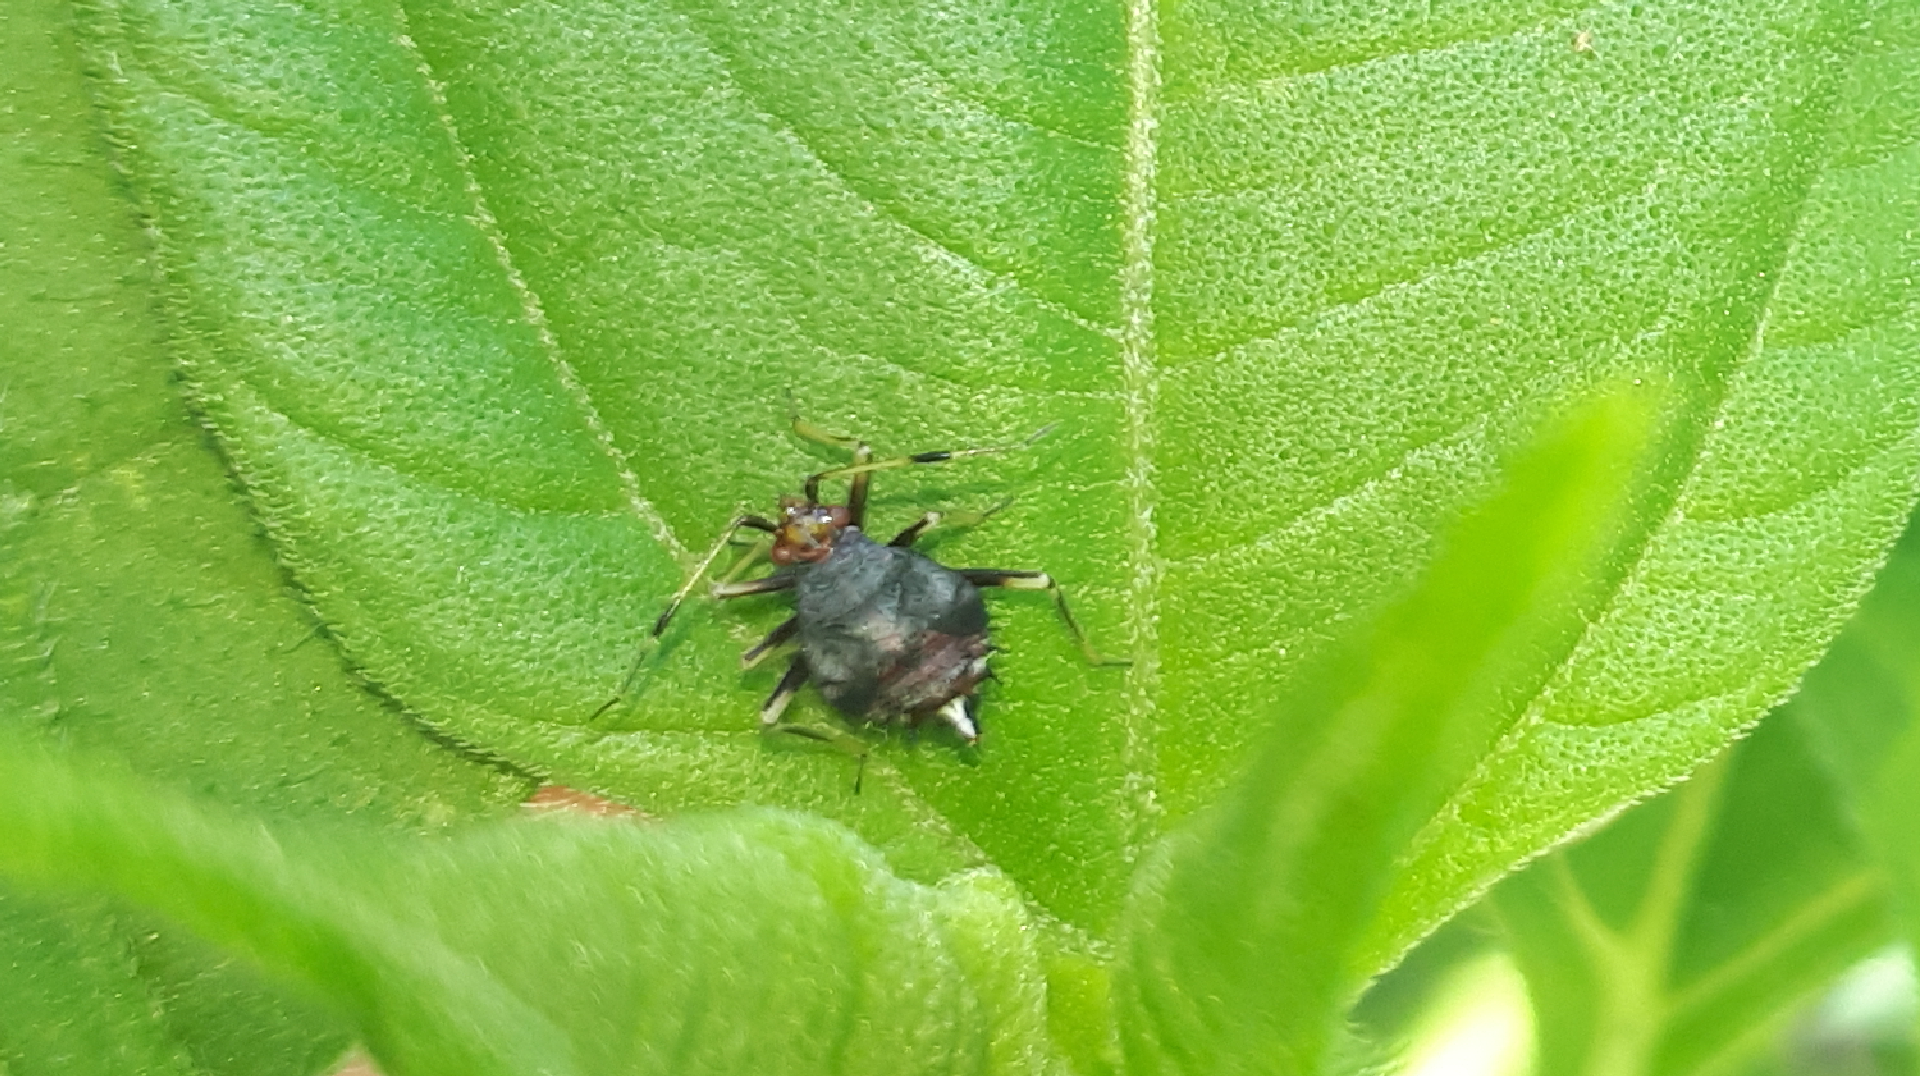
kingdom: Animalia
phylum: Arthropoda
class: Insecta
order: Hemiptera
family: Miridae
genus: Deraeocoris
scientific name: Deraeocoris ruber
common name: Plant bug
